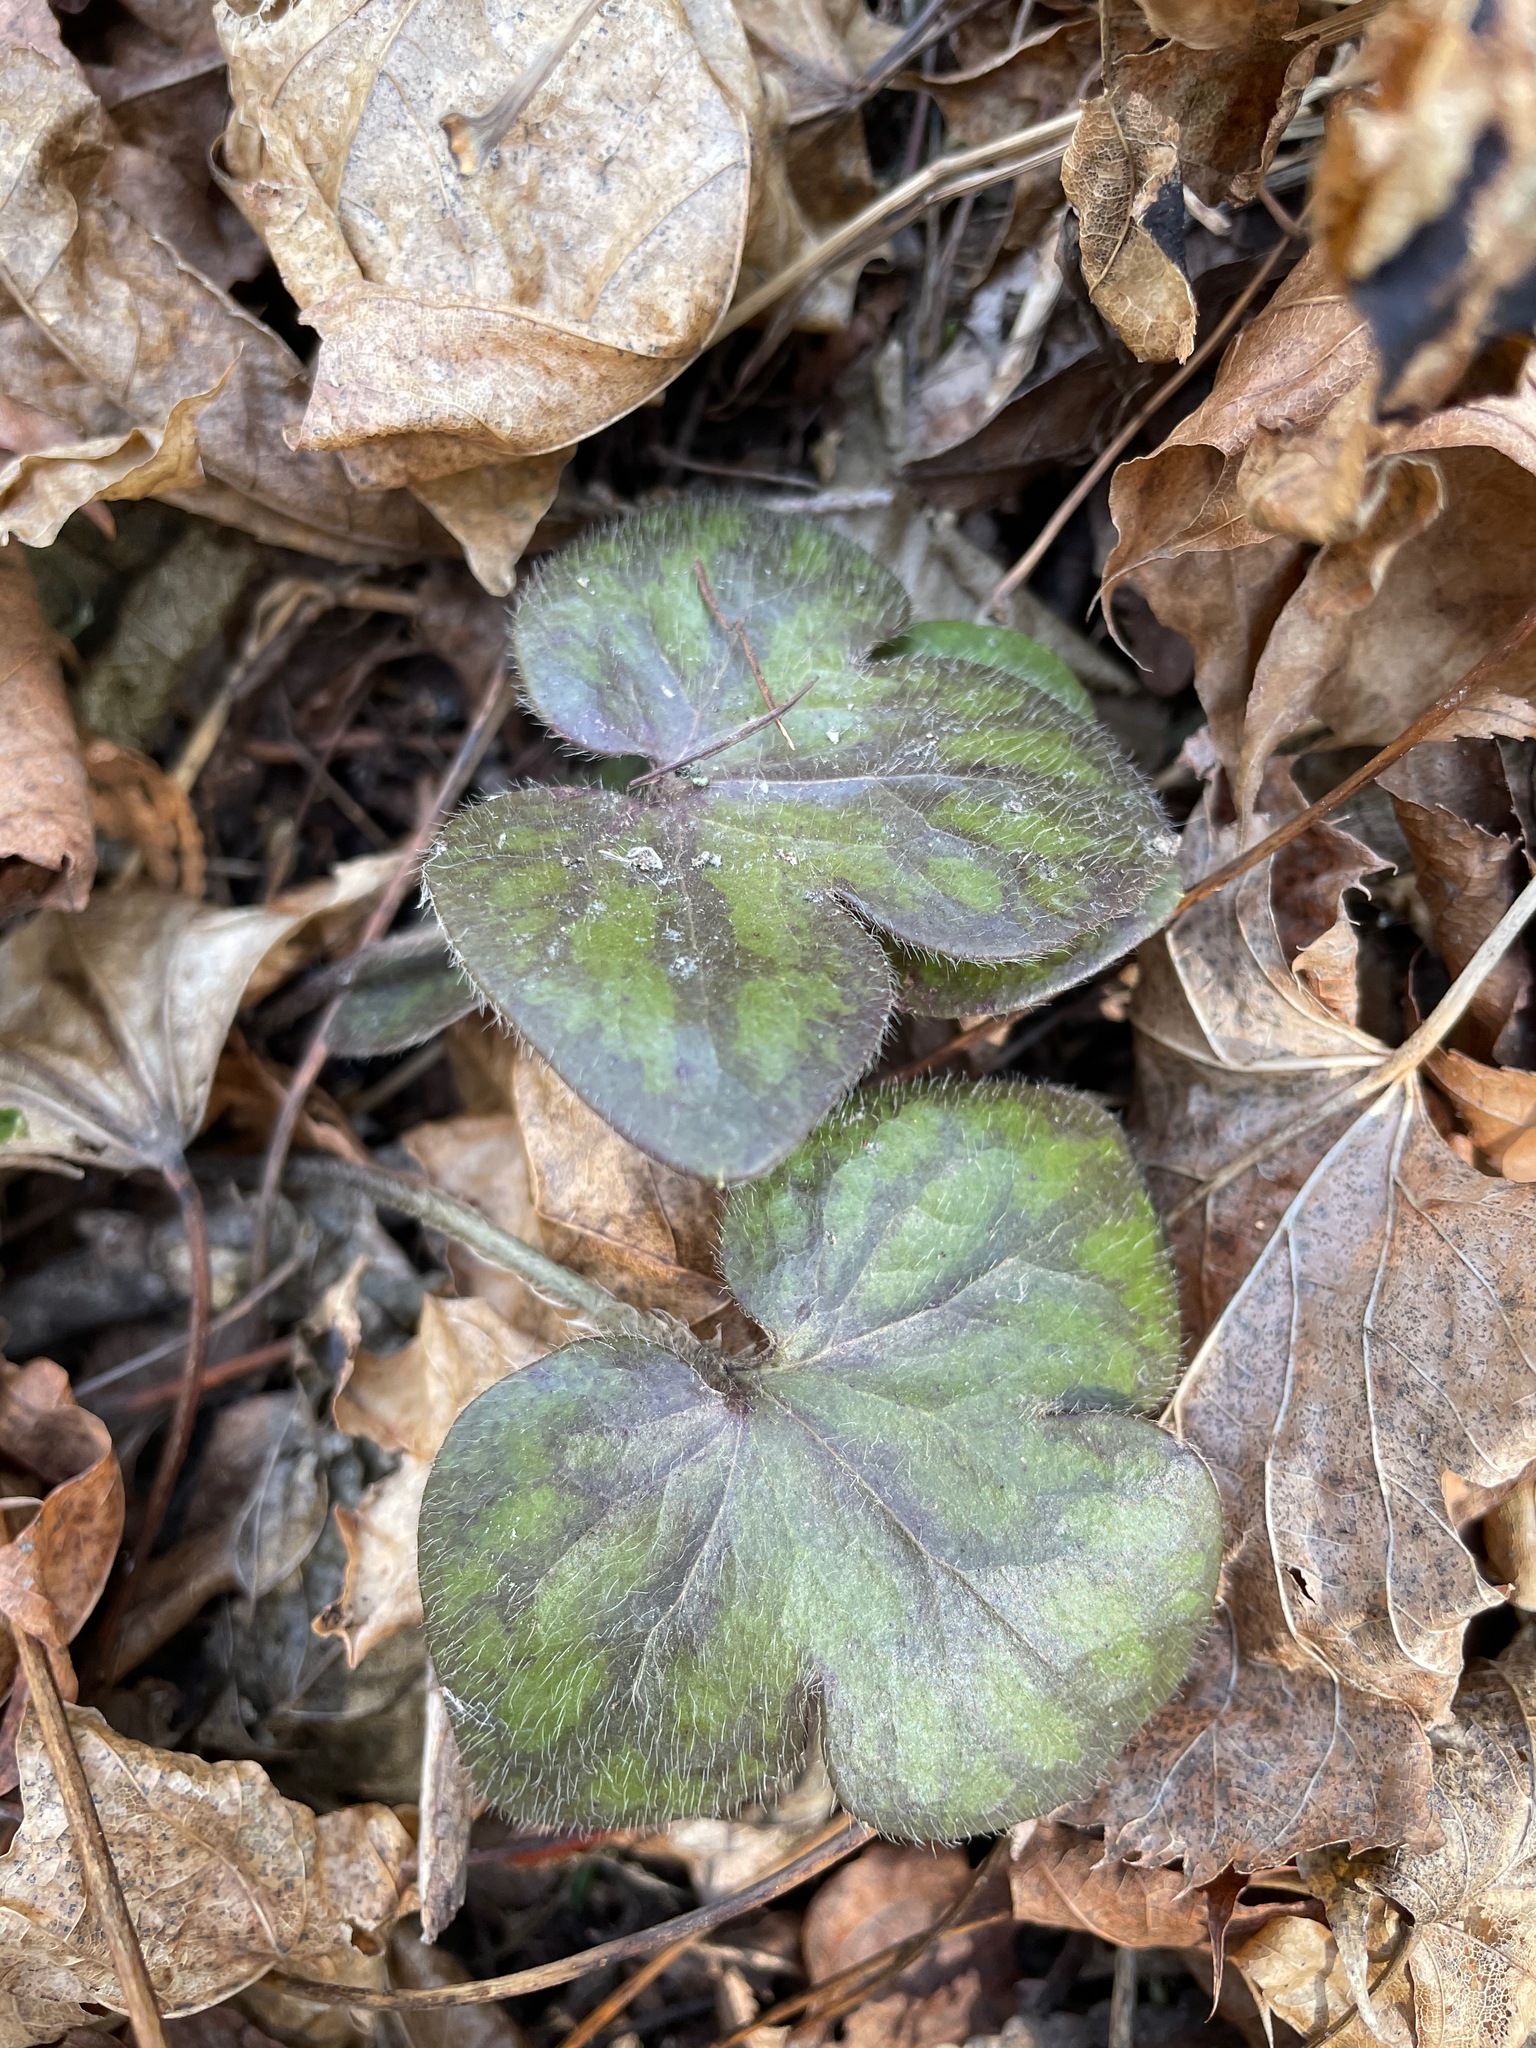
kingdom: Plantae
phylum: Tracheophyta
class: Magnoliopsida
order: Ranunculales
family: Ranunculaceae
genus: Hepatica
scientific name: Hepatica americana
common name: American hepatica
